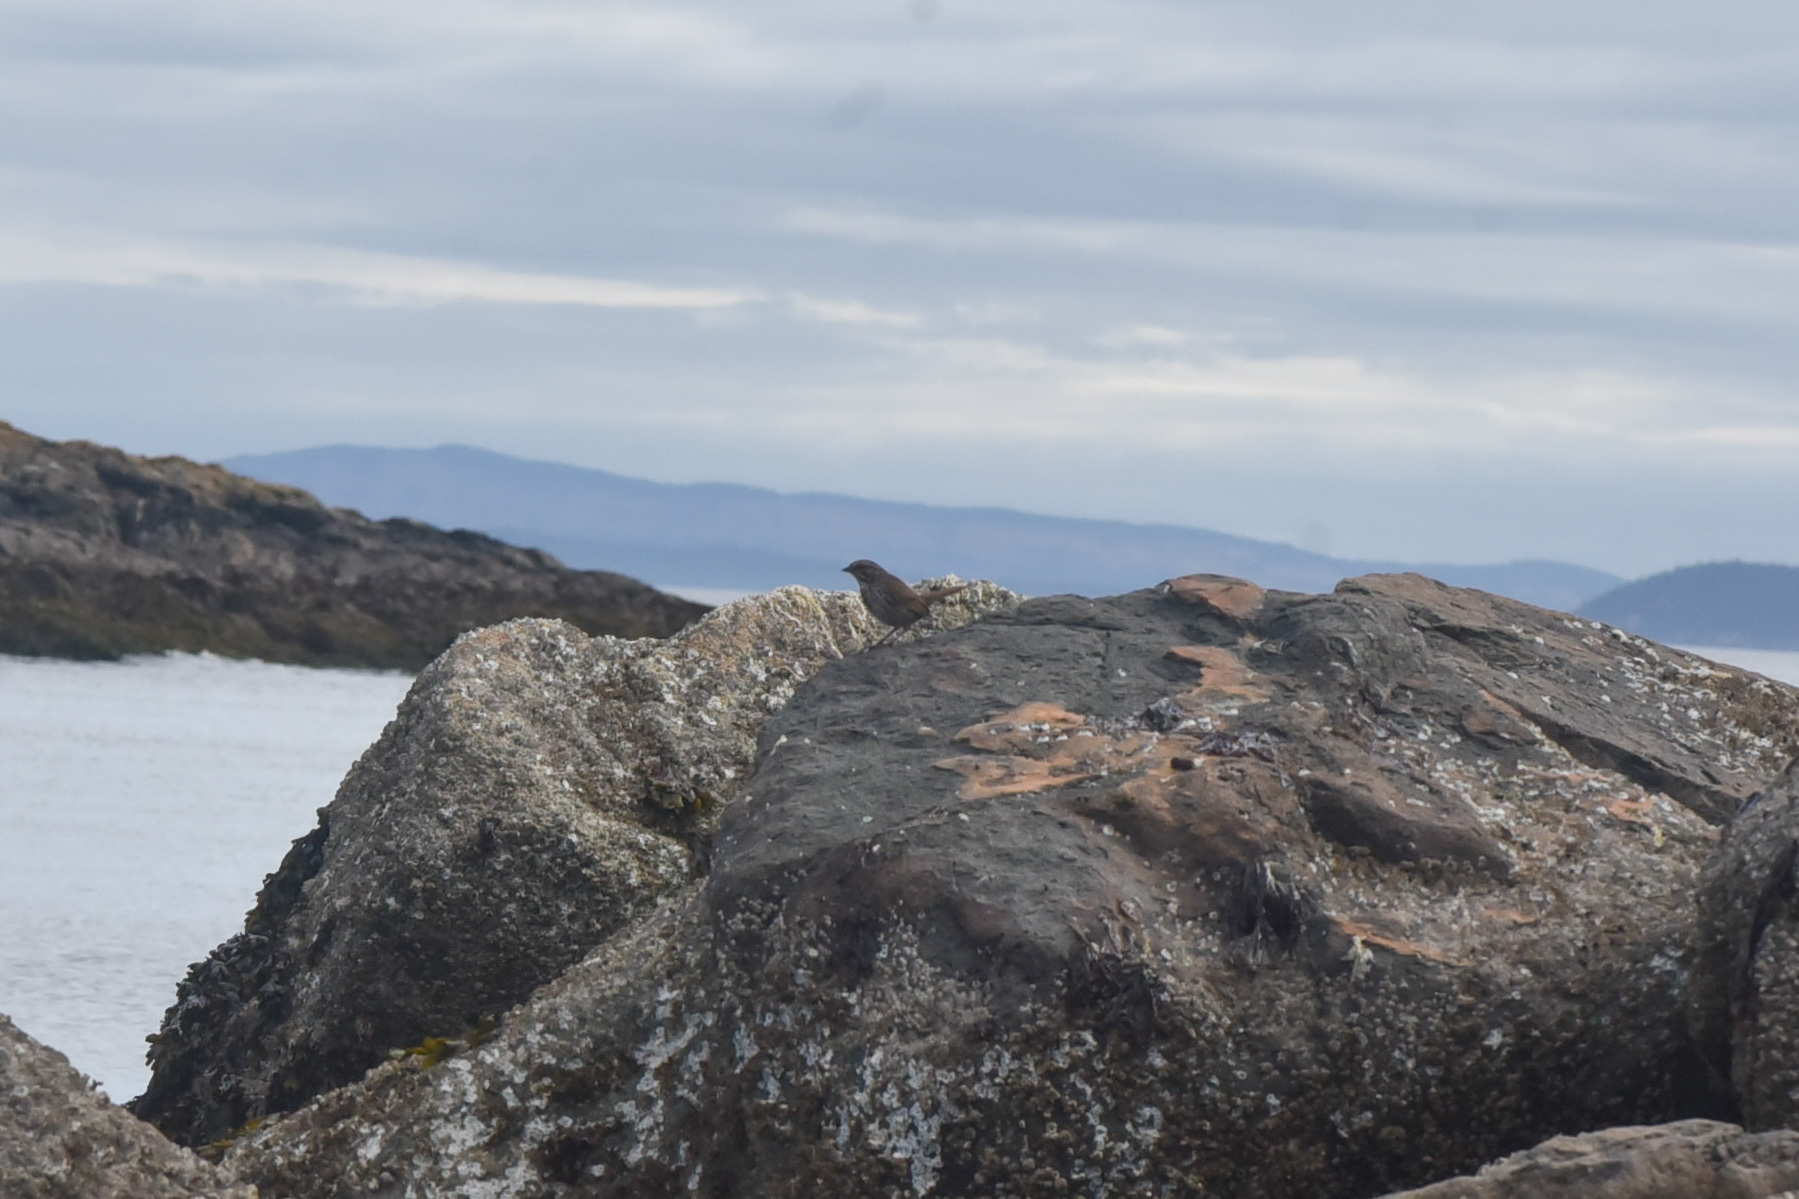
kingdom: Animalia
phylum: Chordata
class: Aves
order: Passeriformes
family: Passerellidae
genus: Melospiza
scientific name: Melospiza melodia
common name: Song sparrow
